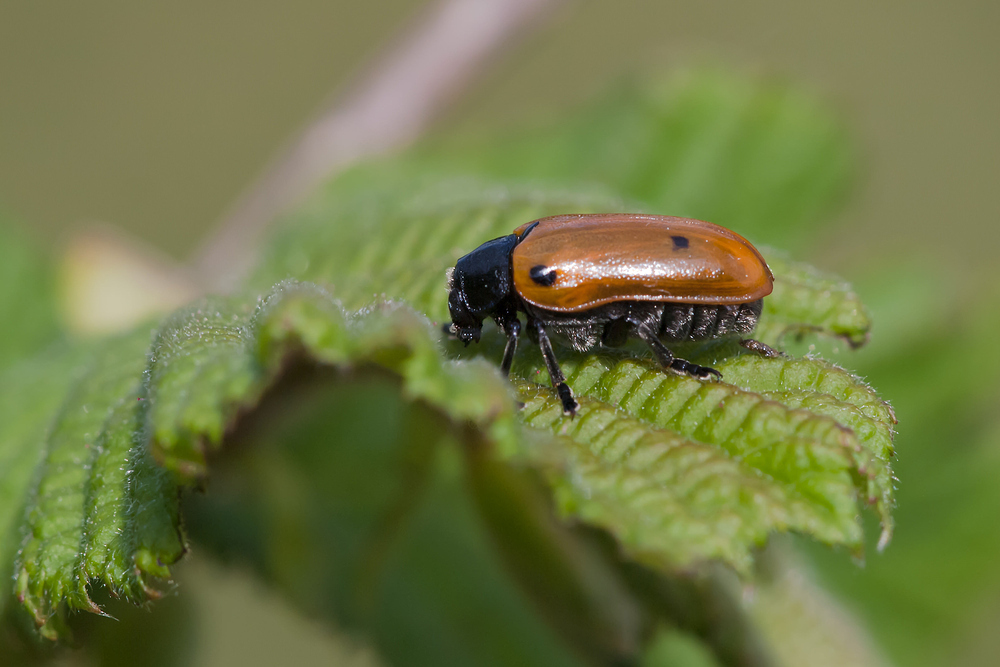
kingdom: Animalia
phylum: Arthropoda
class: Insecta
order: Coleoptera
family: Chrysomelidae
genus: Clytra
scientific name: Clytra quadripunctata
